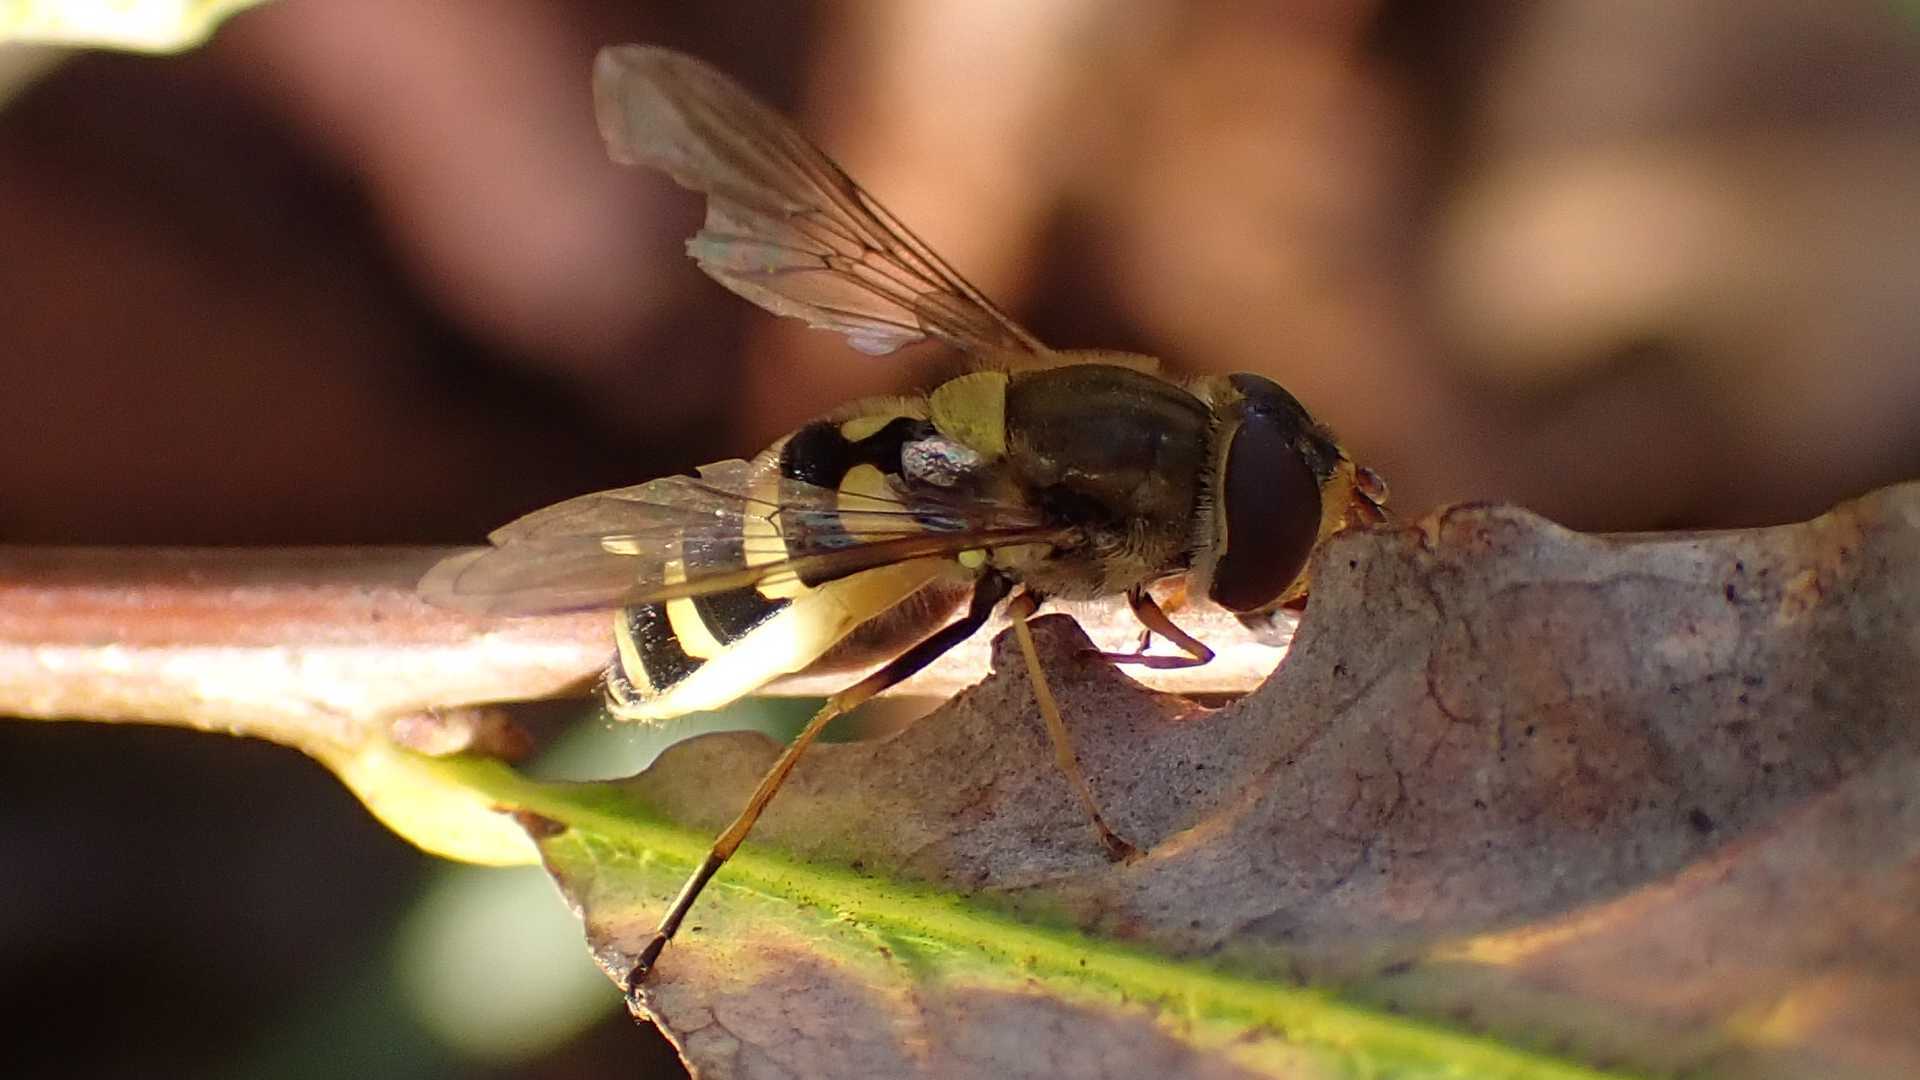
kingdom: Animalia
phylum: Arthropoda
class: Insecta
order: Diptera
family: Syrphidae
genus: Syrphus
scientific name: Syrphus
